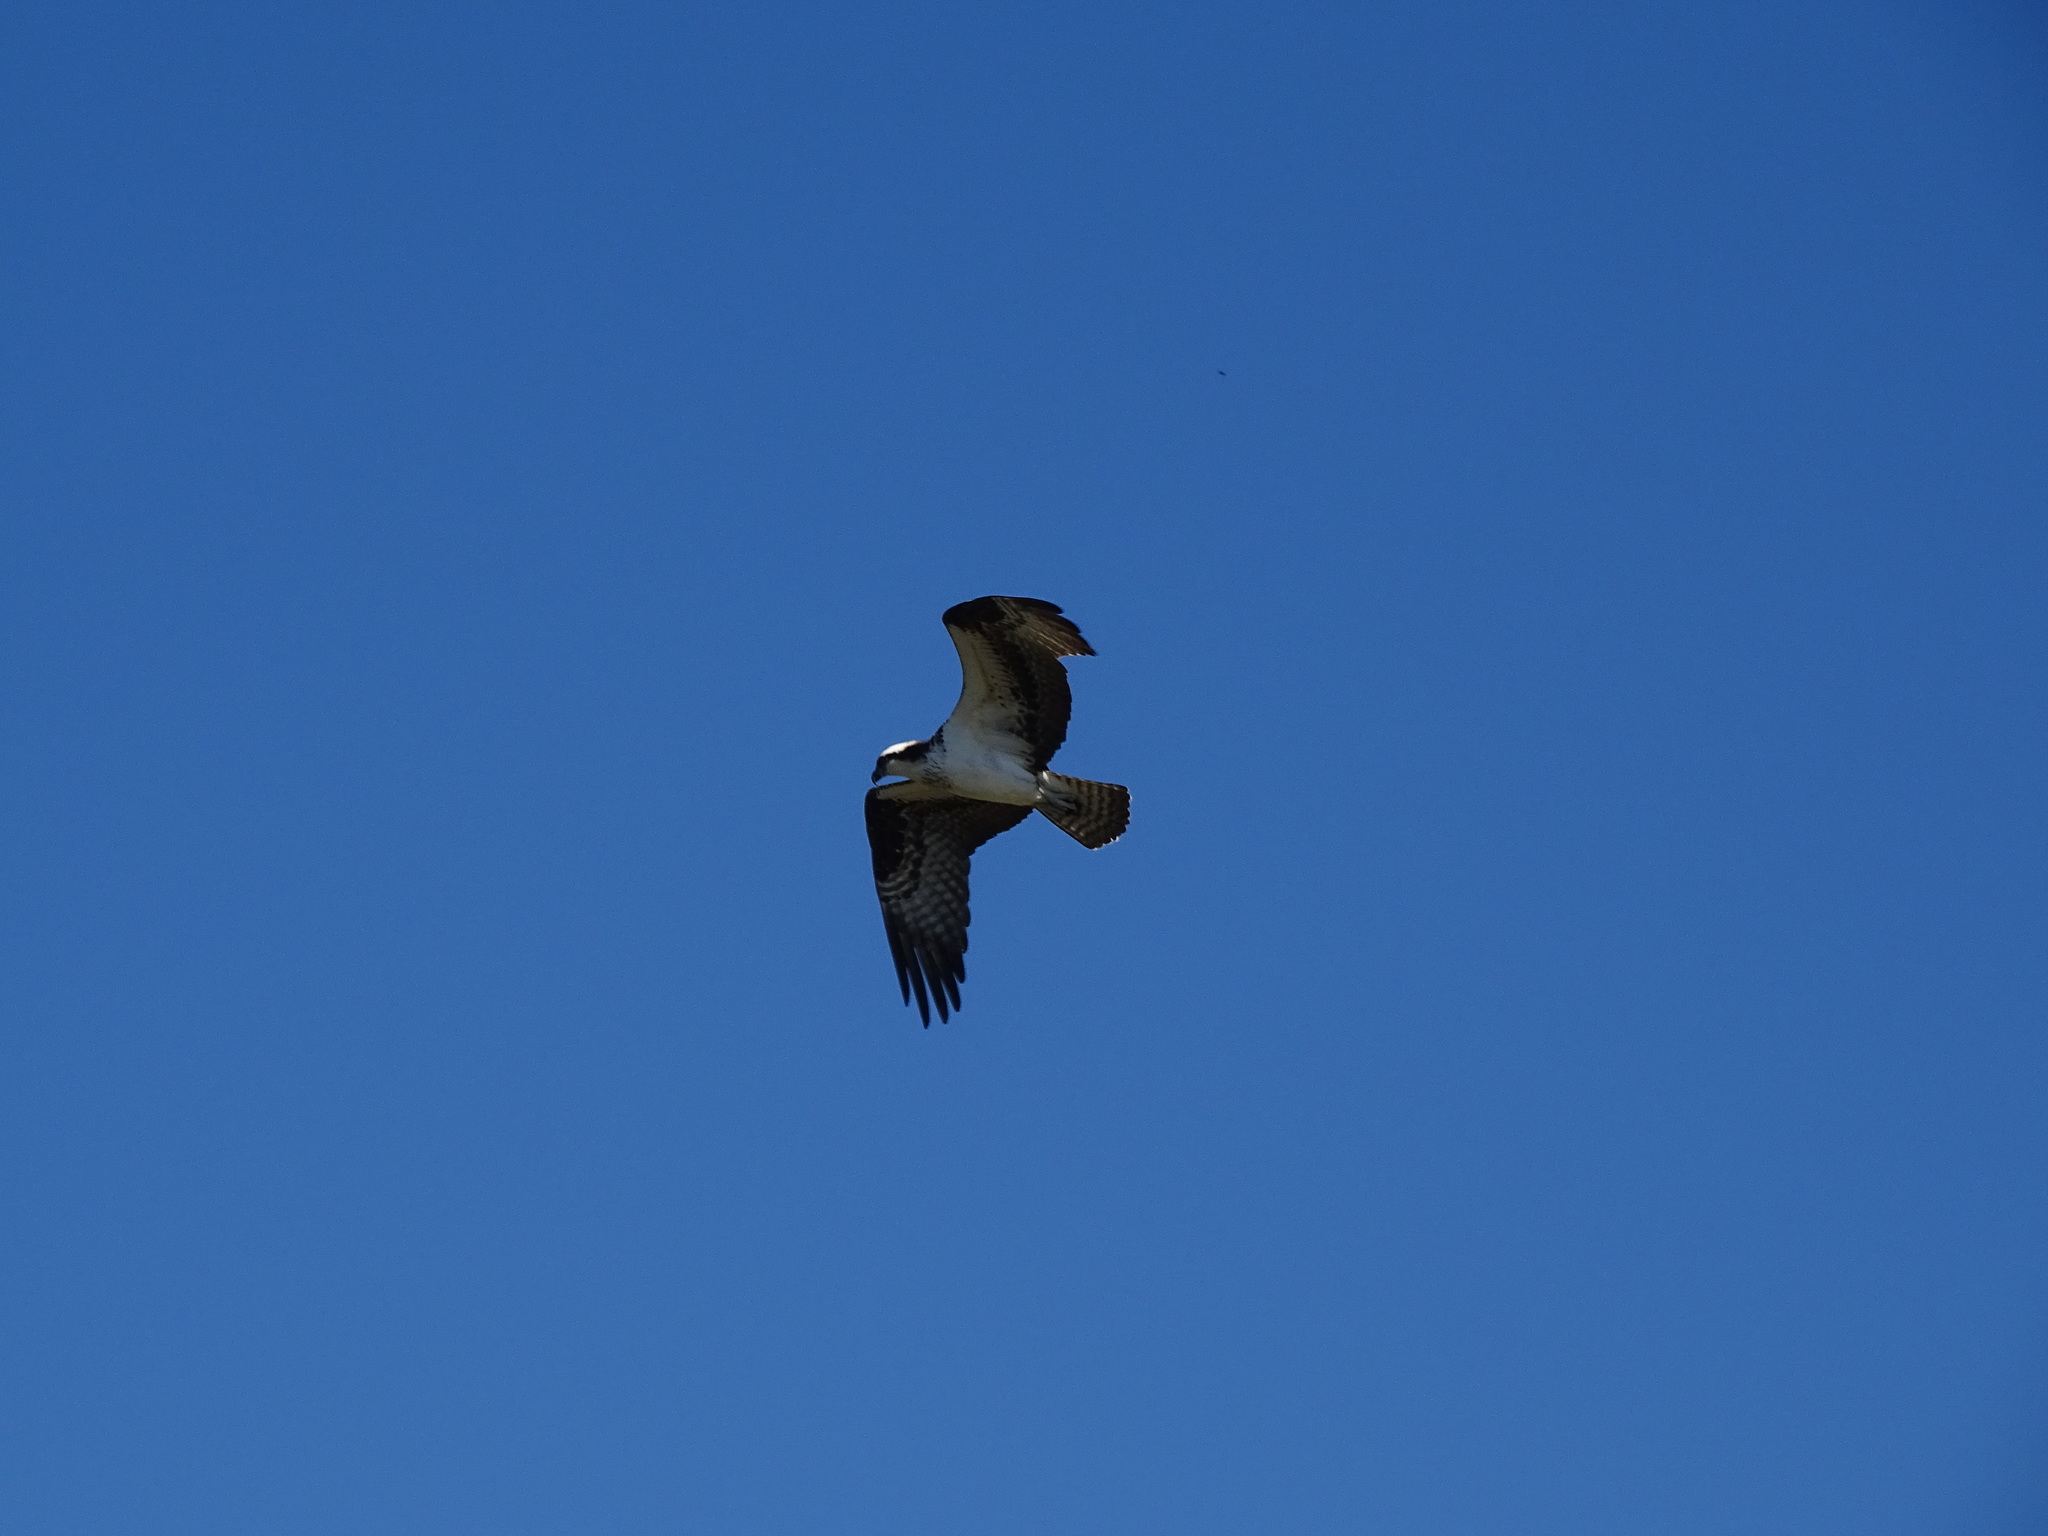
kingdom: Animalia
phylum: Chordata
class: Aves
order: Accipitriformes
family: Pandionidae
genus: Pandion
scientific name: Pandion haliaetus
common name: Osprey
